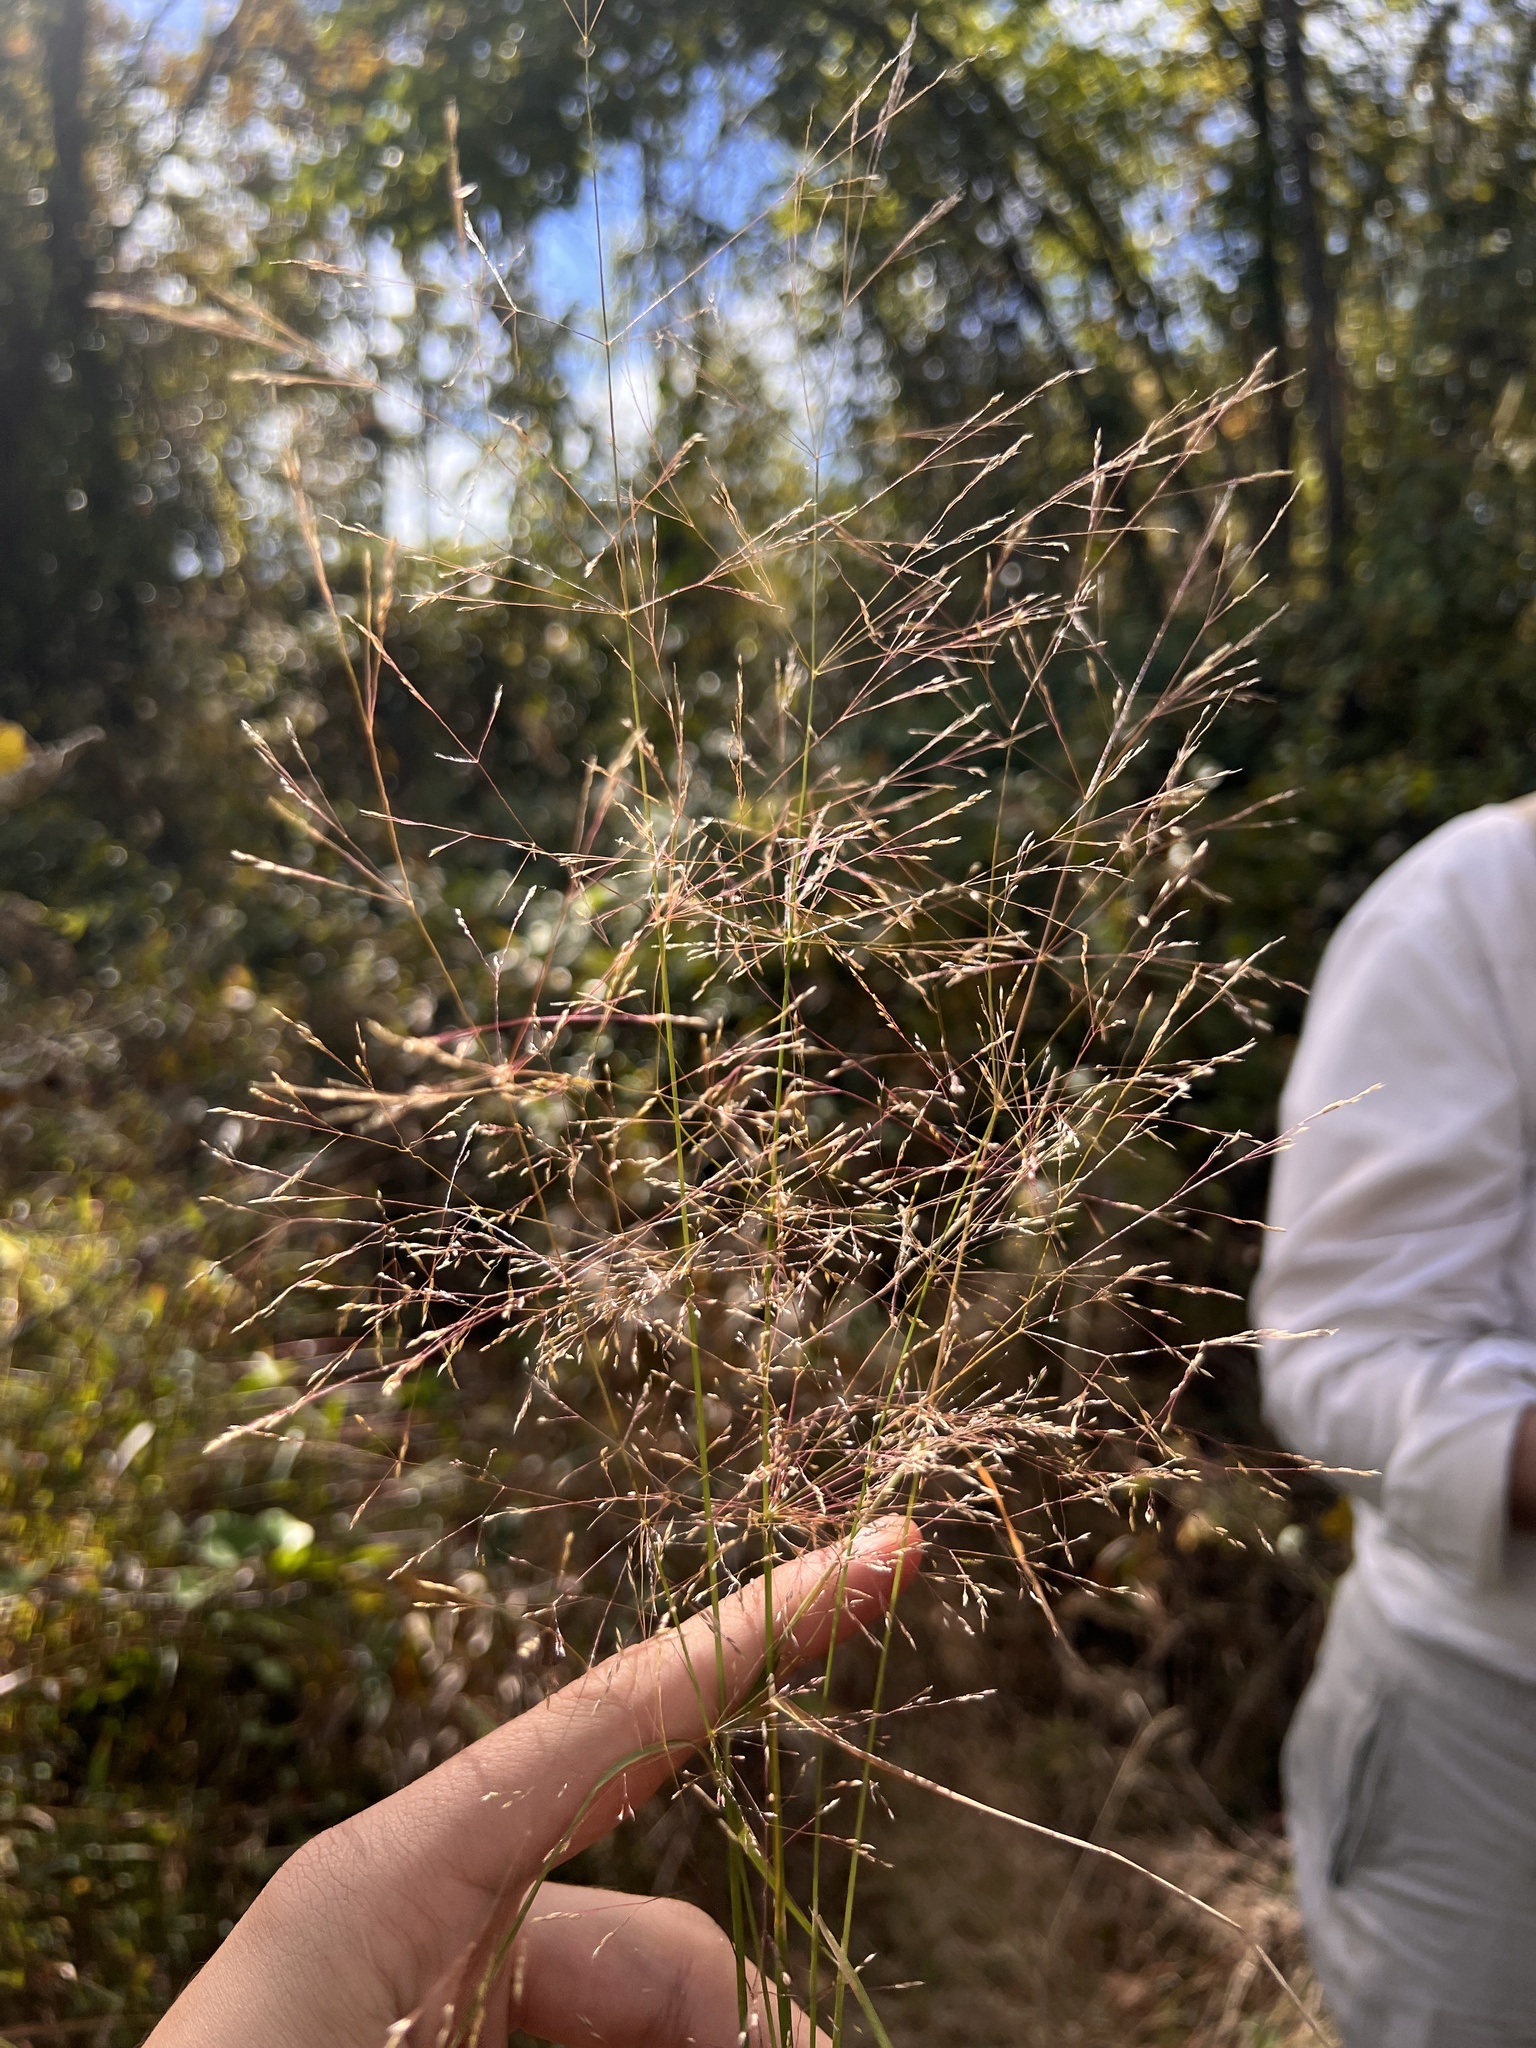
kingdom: Plantae
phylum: Tracheophyta
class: Liliopsida
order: Poales
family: Poaceae
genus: Agrostis
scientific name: Agrostis scabra
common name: Rough bent
